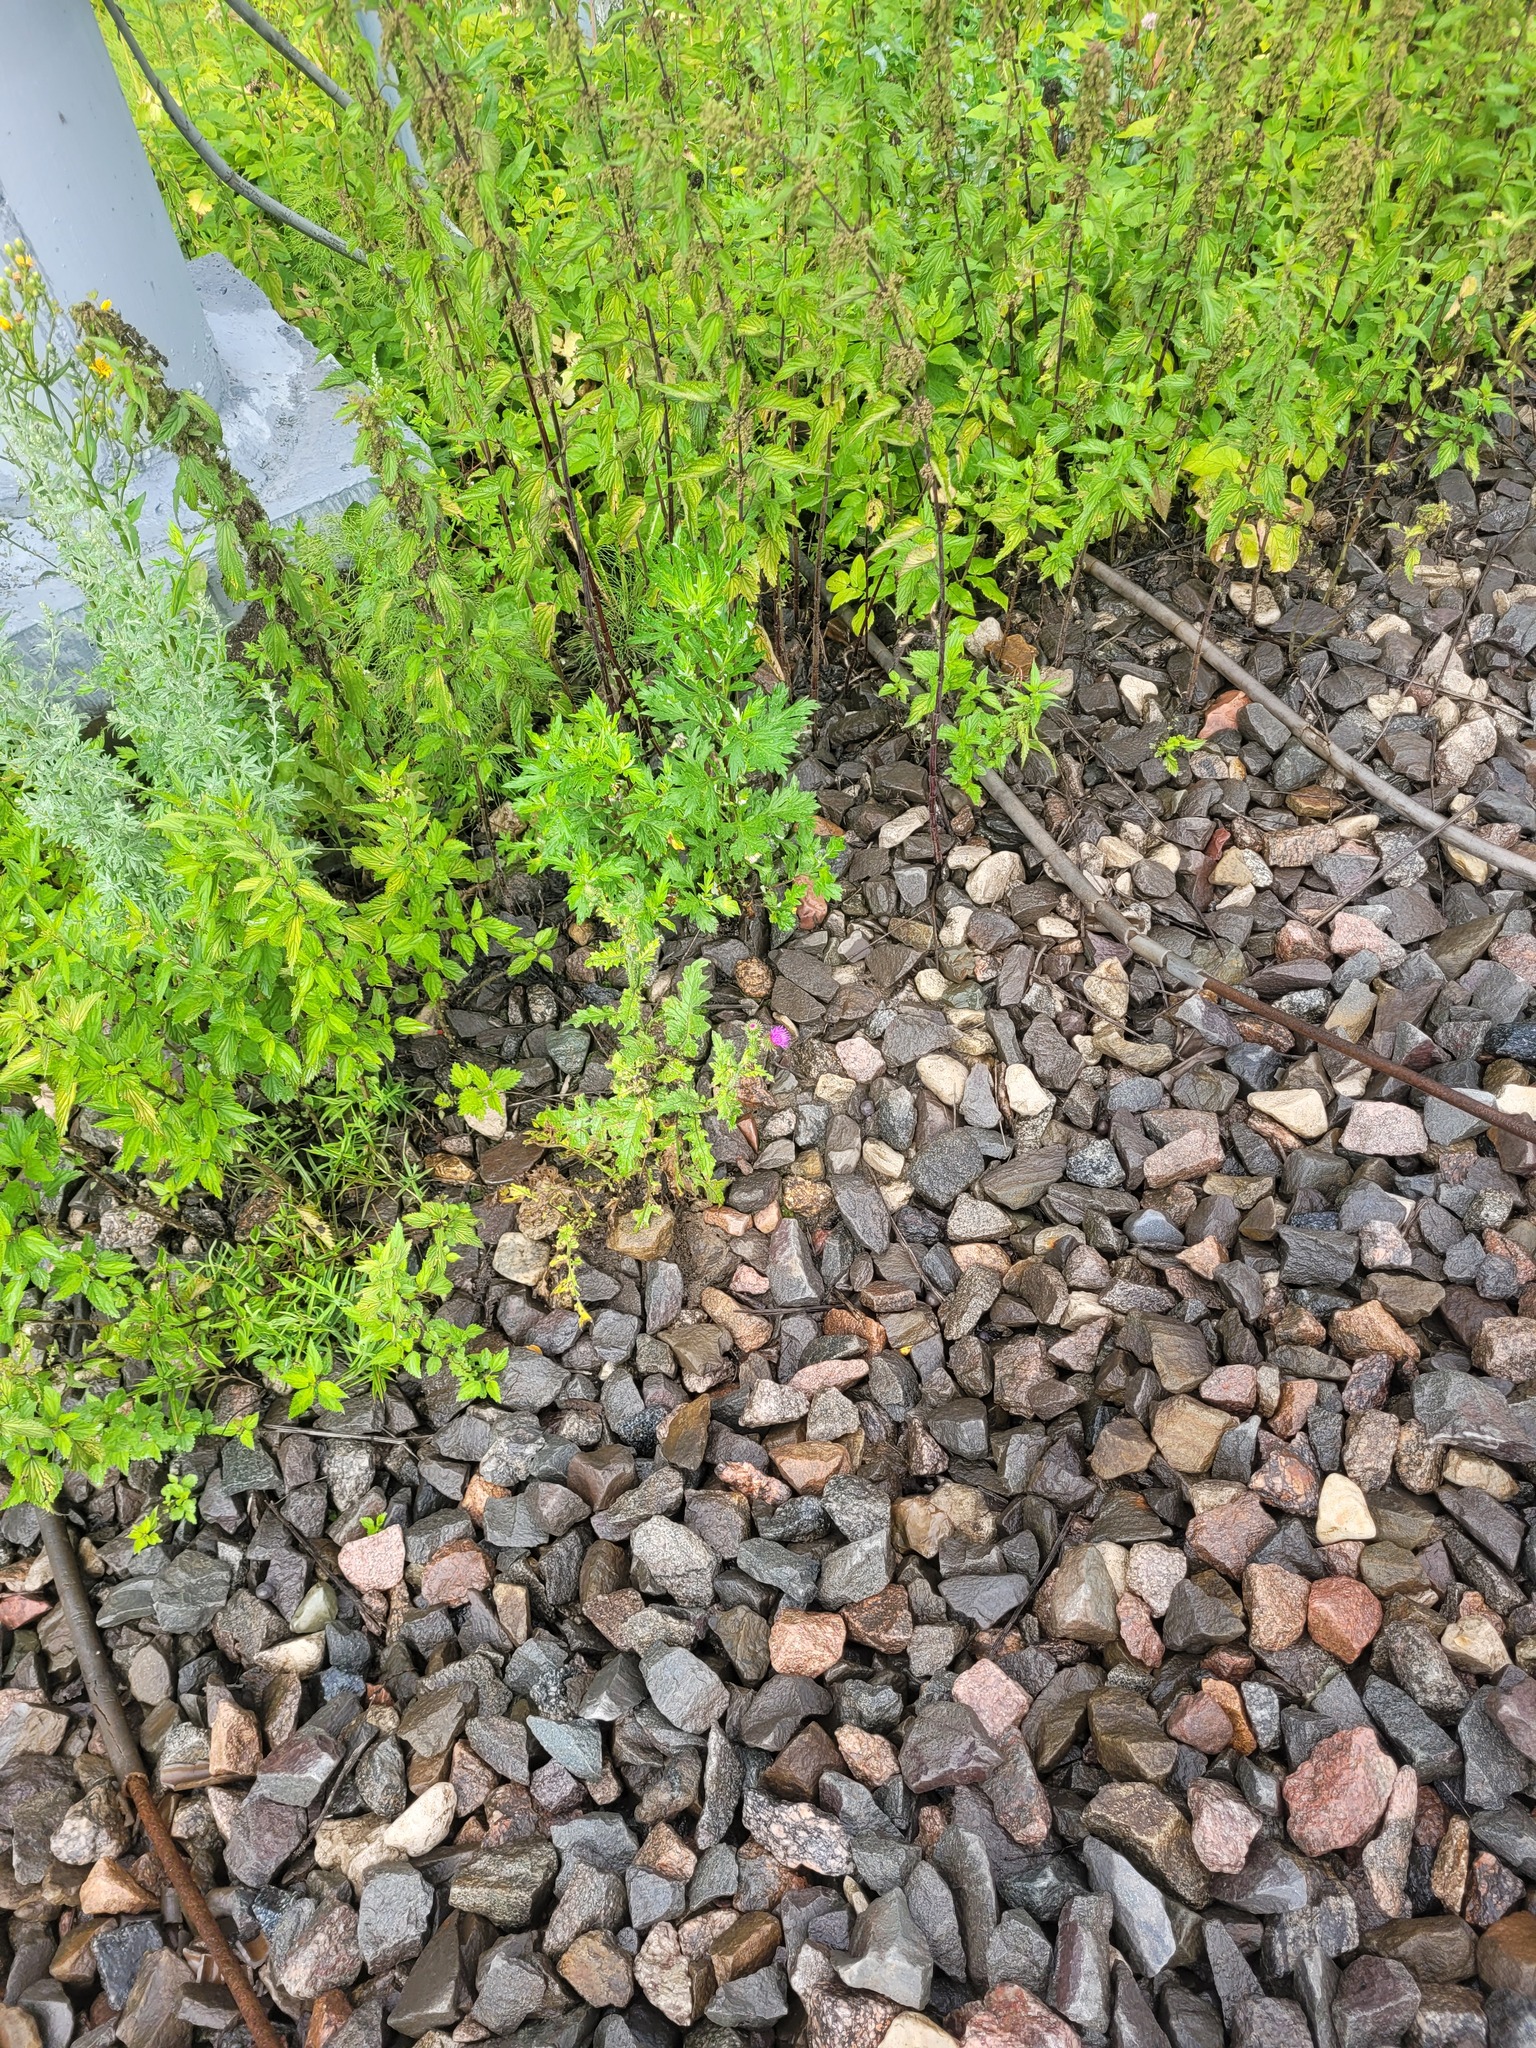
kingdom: Plantae
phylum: Tracheophyta
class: Magnoliopsida
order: Asterales
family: Asteraceae
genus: Carduus
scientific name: Carduus crispus
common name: Welted thistle
